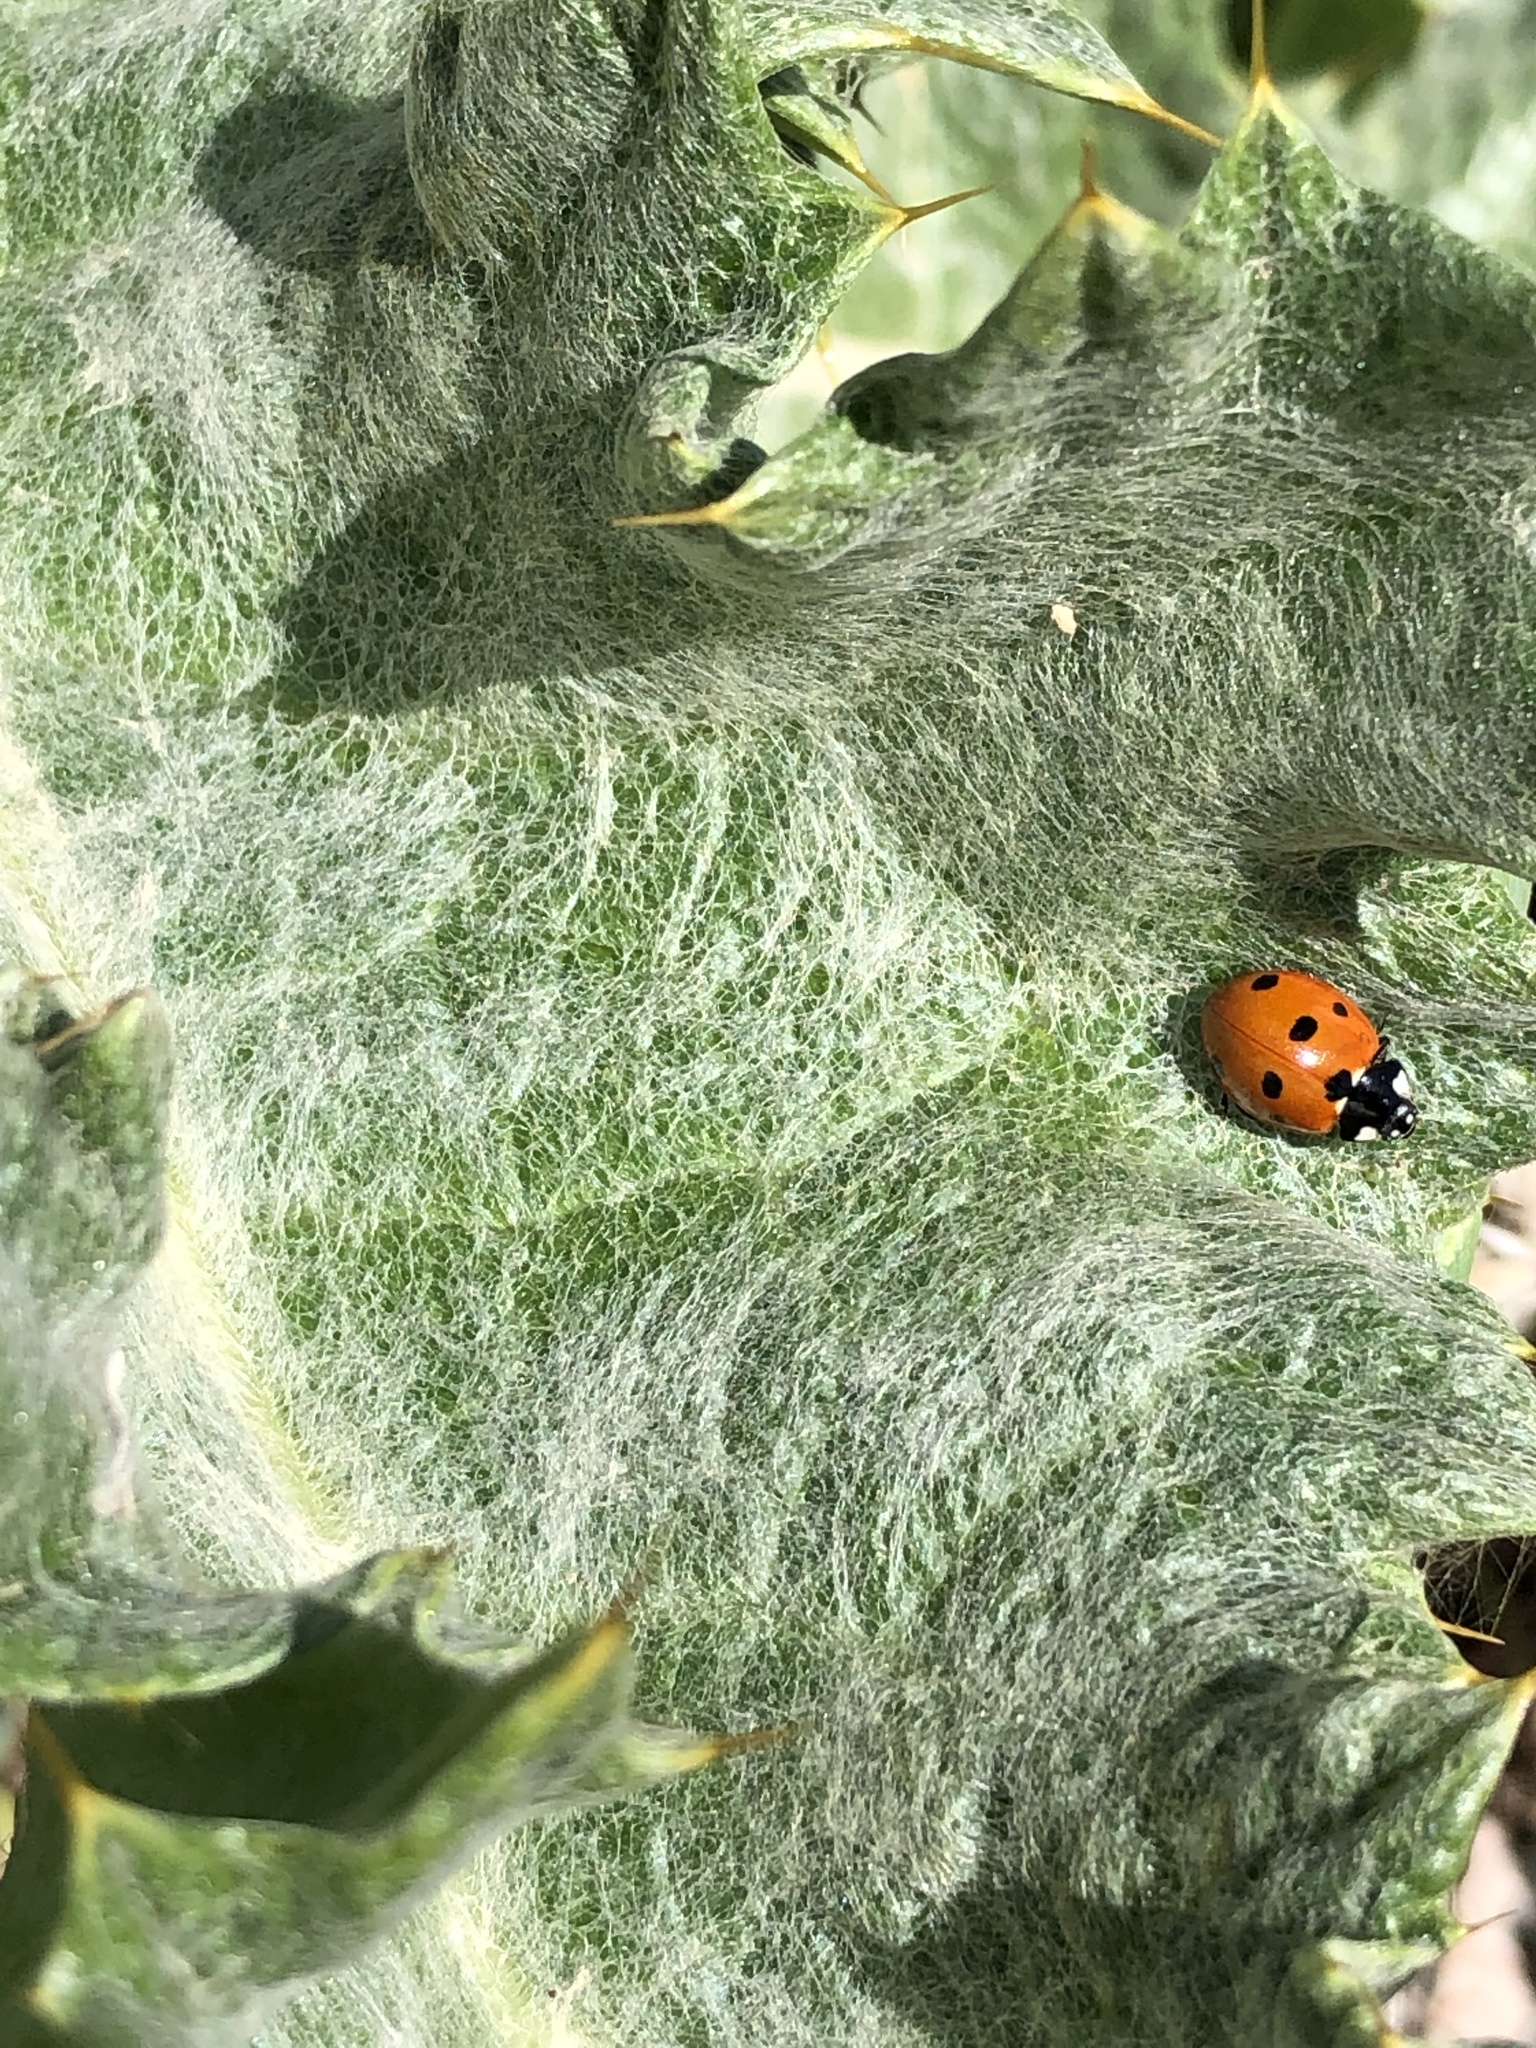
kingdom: Animalia
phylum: Arthropoda
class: Insecta
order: Coleoptera
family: Coccinellidae
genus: Coccinella
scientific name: Coccinella septempunctata
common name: Sevenspotted lady beetle
